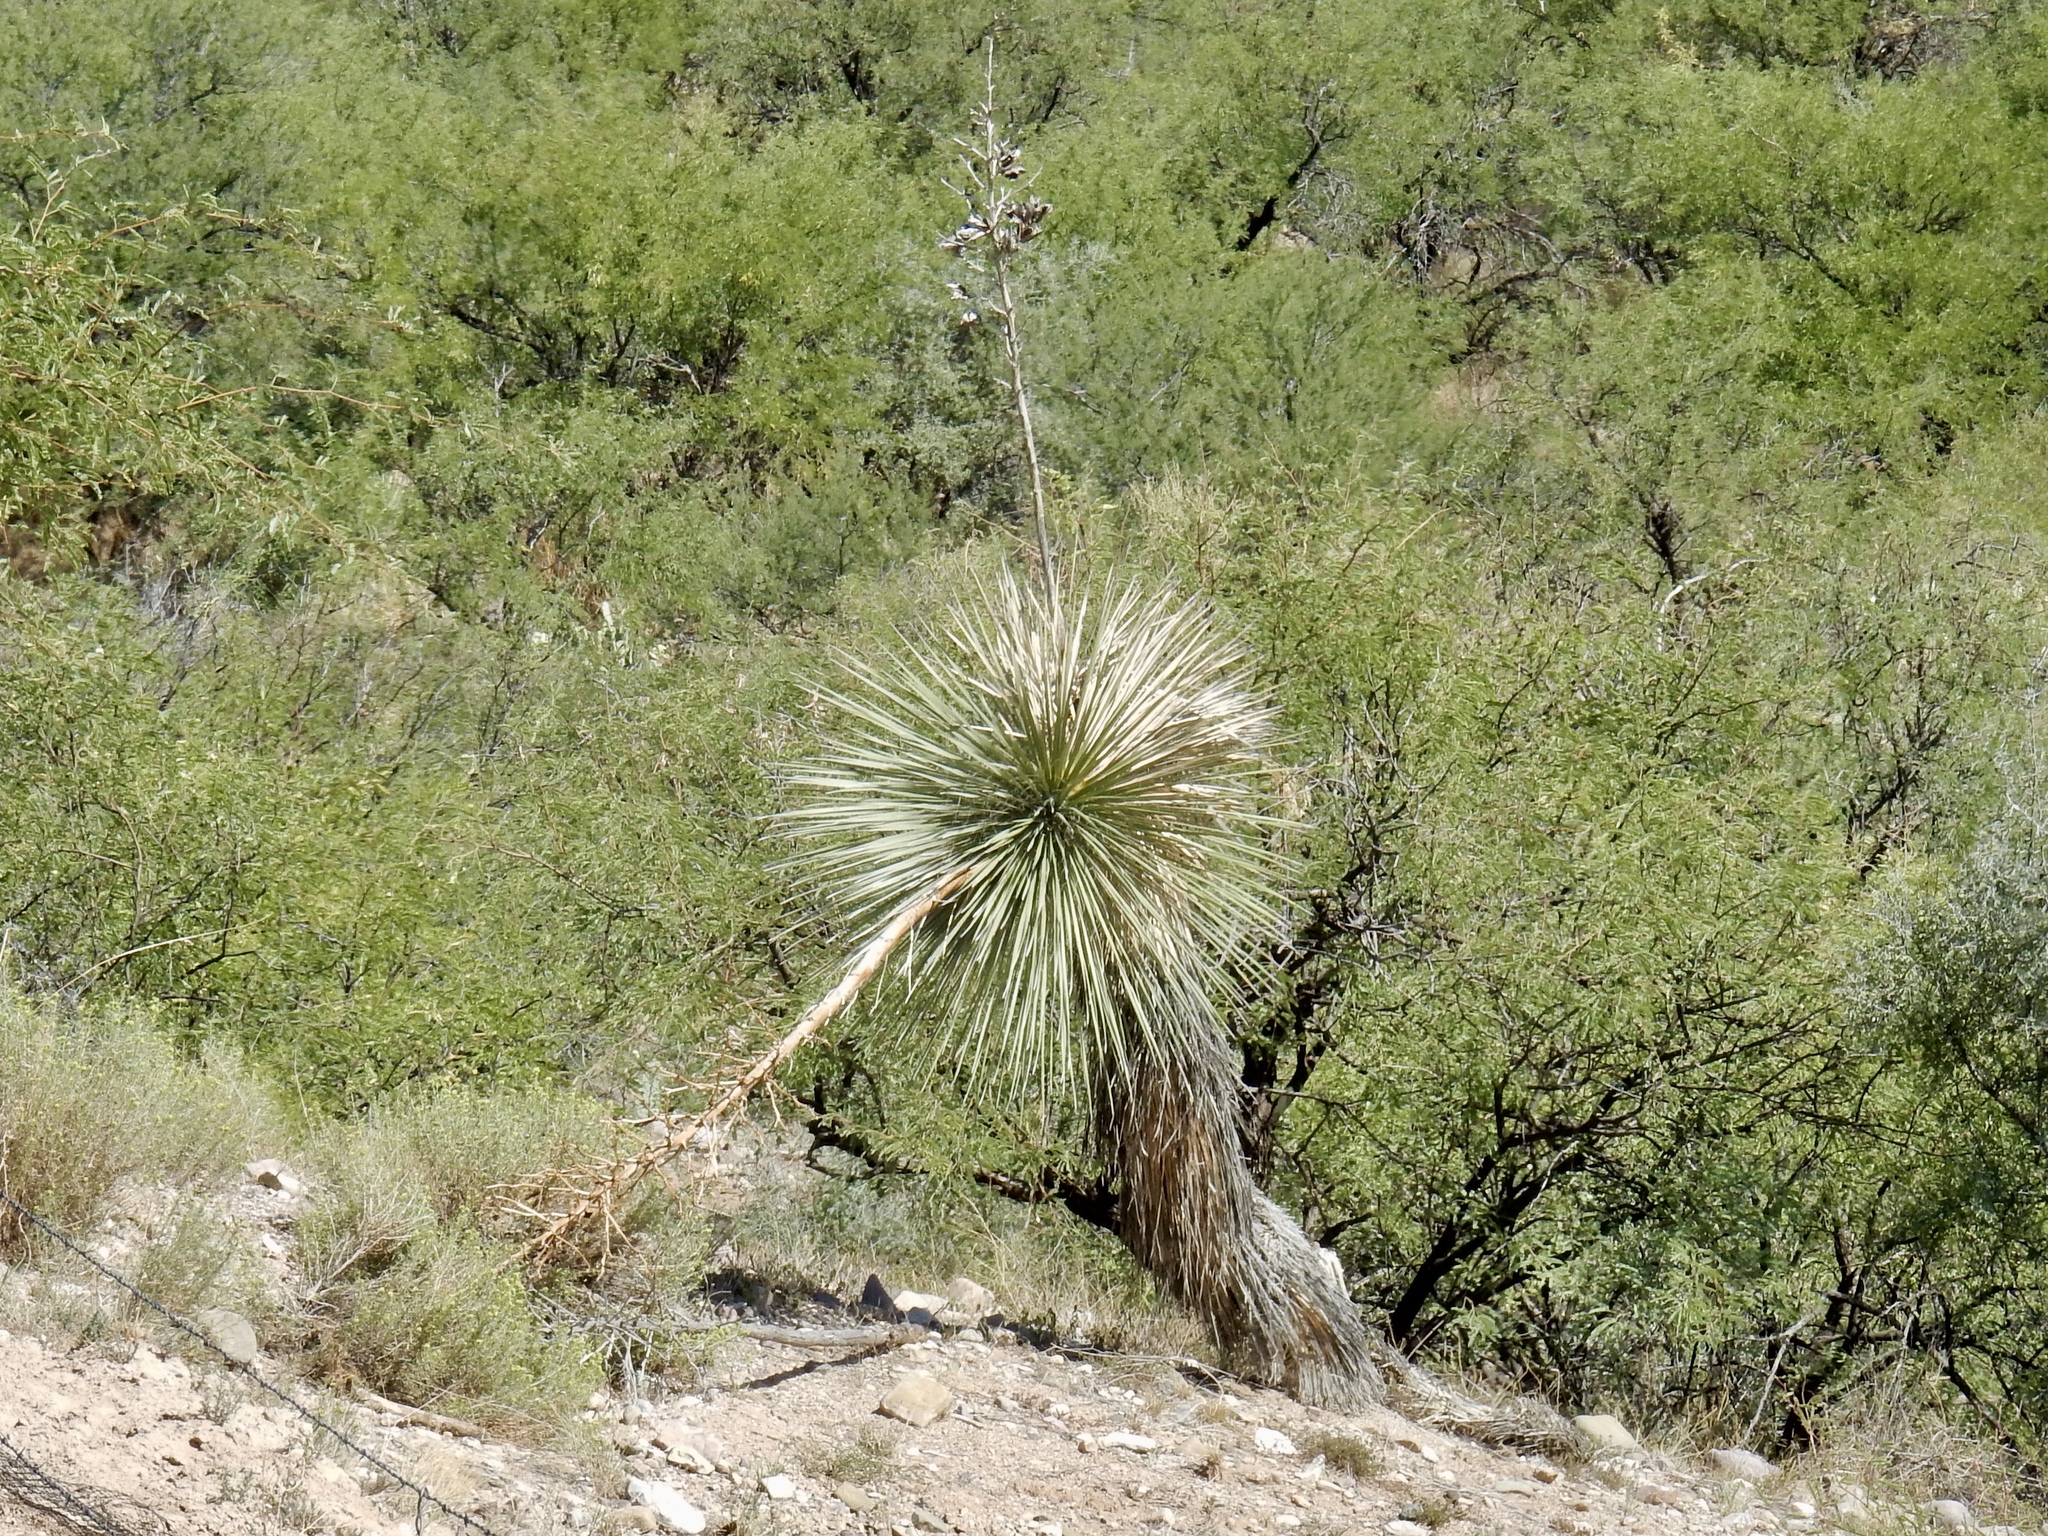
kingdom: Plantae
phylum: Tracheophyta
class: Liliopsida
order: Asparagales
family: Asparagaceae
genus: Yucca
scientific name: Yucca elata
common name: Palmella
